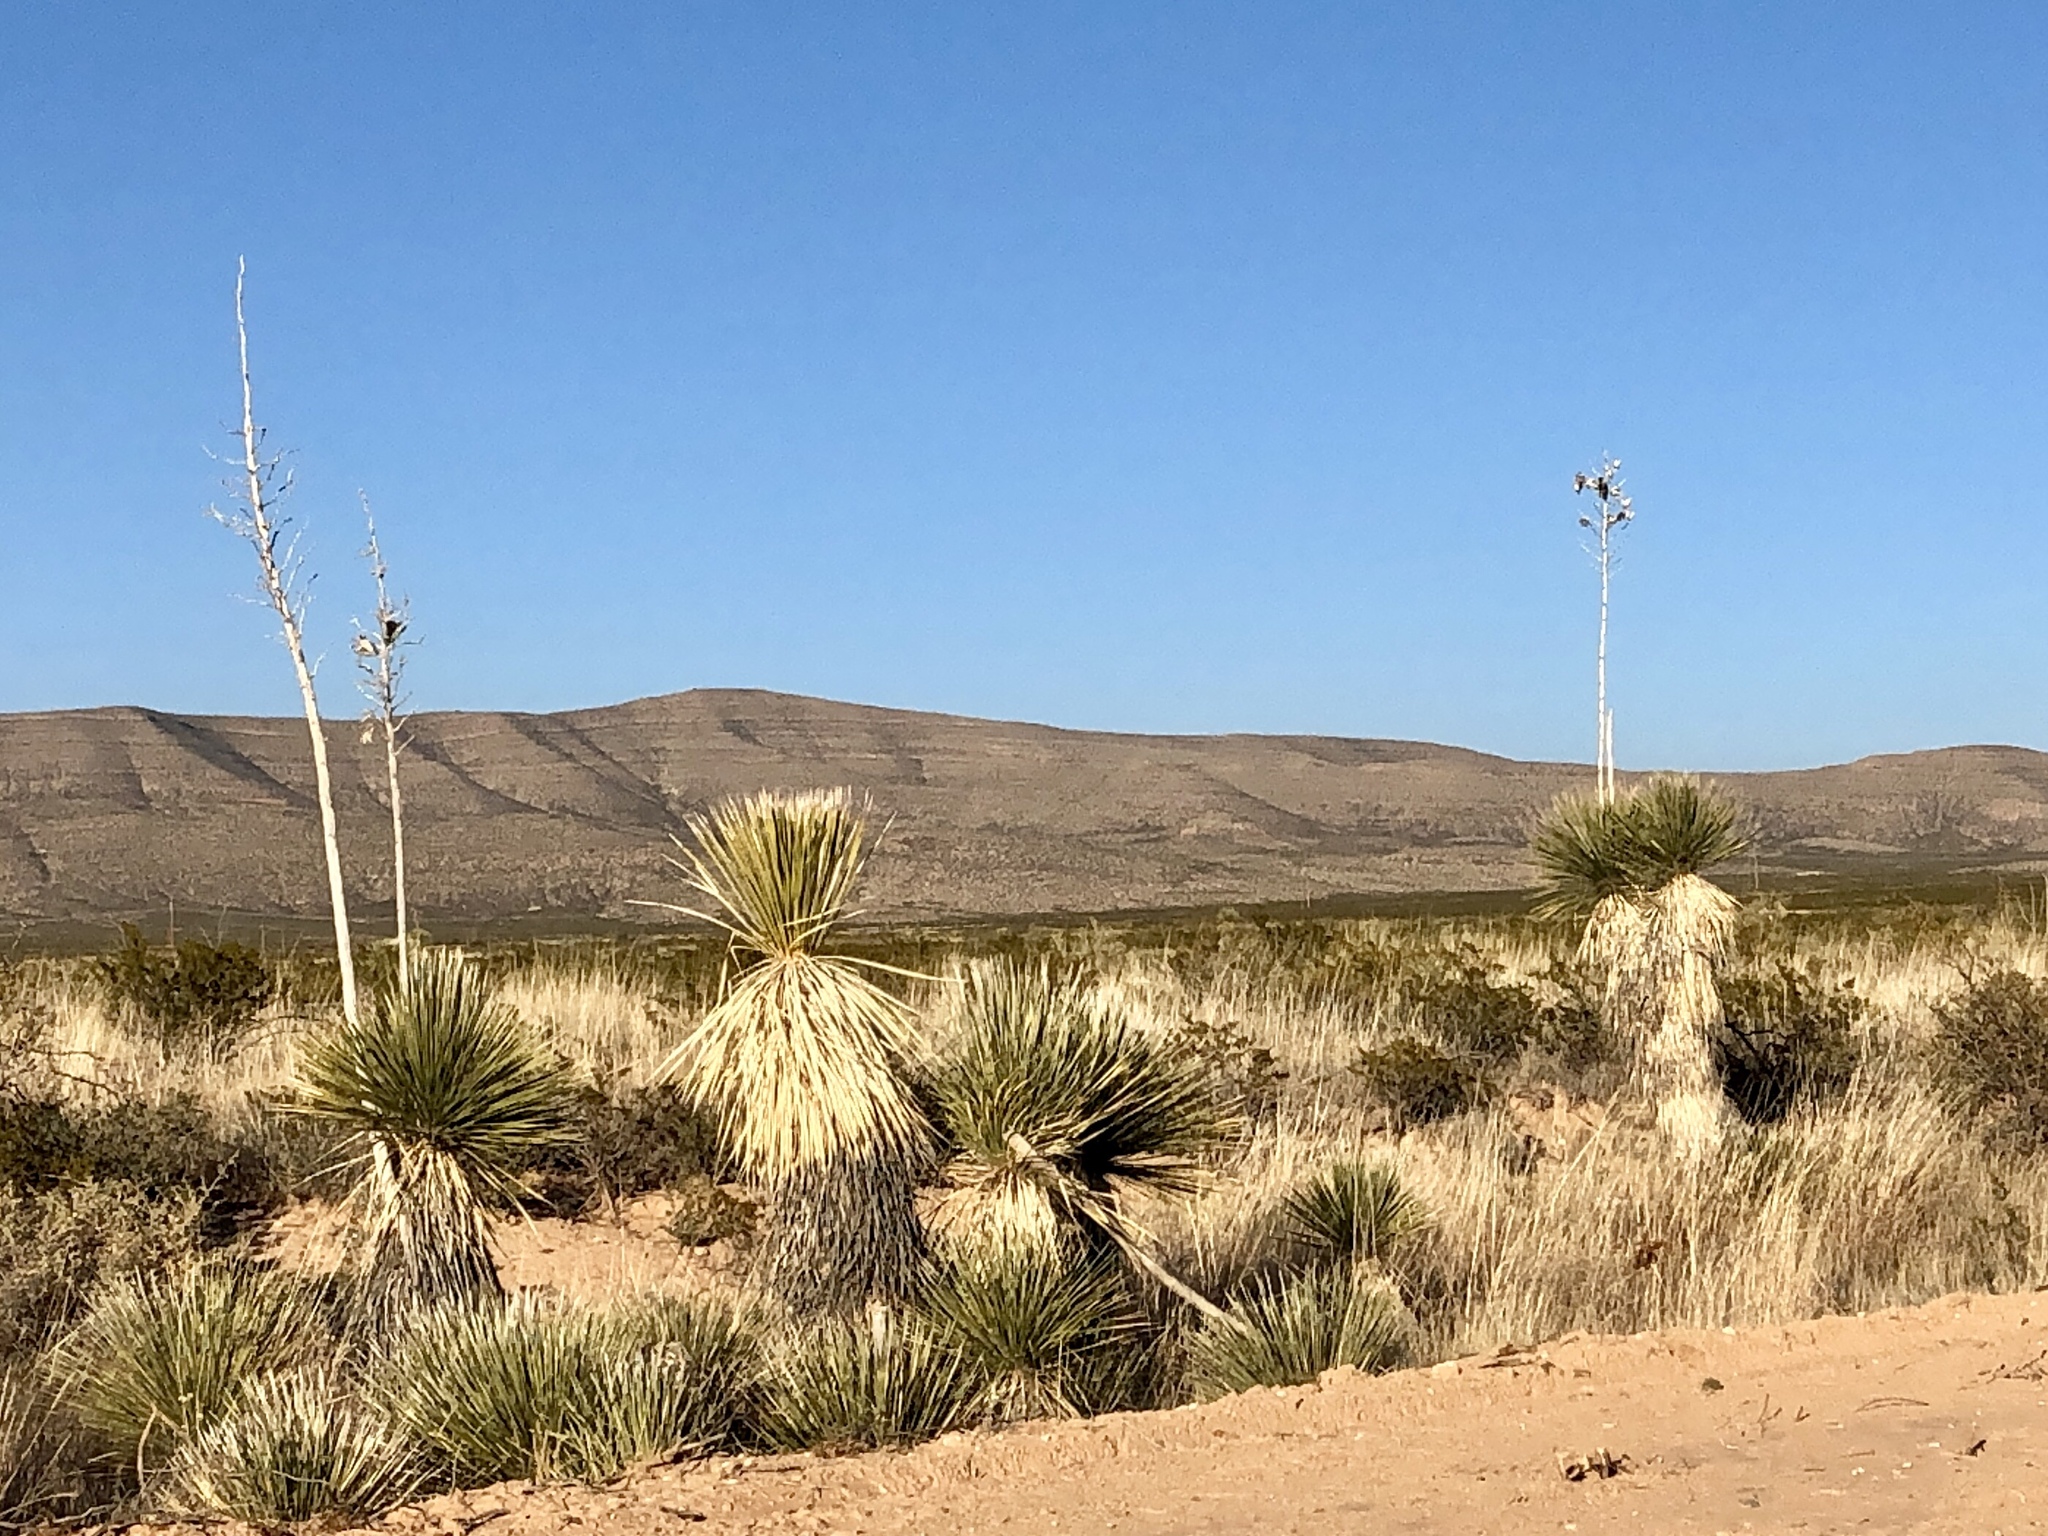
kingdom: Plantae
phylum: Tracheophyta
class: Liliopsida
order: Asparagales
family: Asparagaceae
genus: Yucca
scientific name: Yucca elata
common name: Palmella
